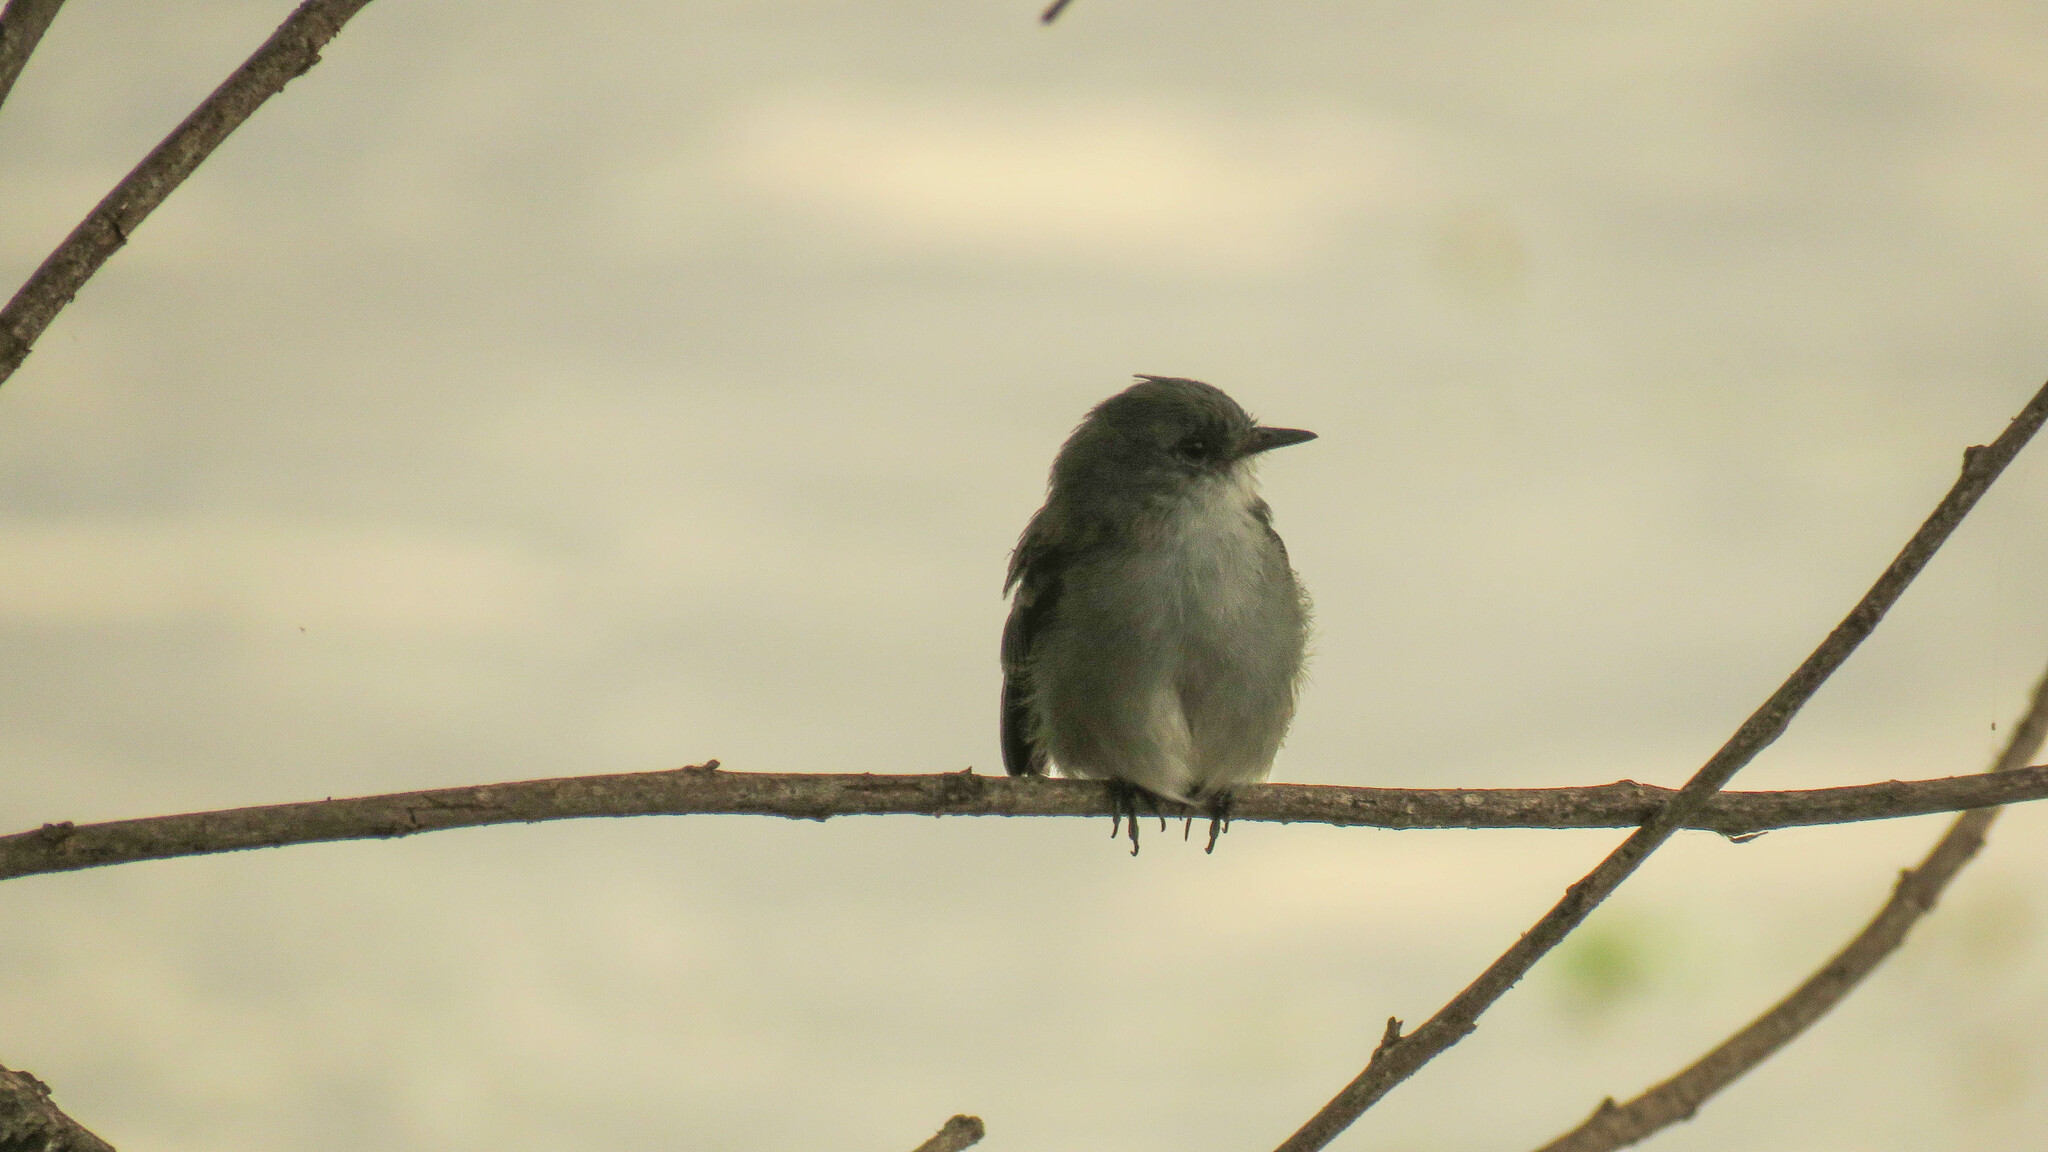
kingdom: Animalia
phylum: Chordata
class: Aves
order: Passeriformes
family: Tyrannidae
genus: Serpophaga
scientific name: Serpophaga nigricans
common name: Sooty tyrannulet
